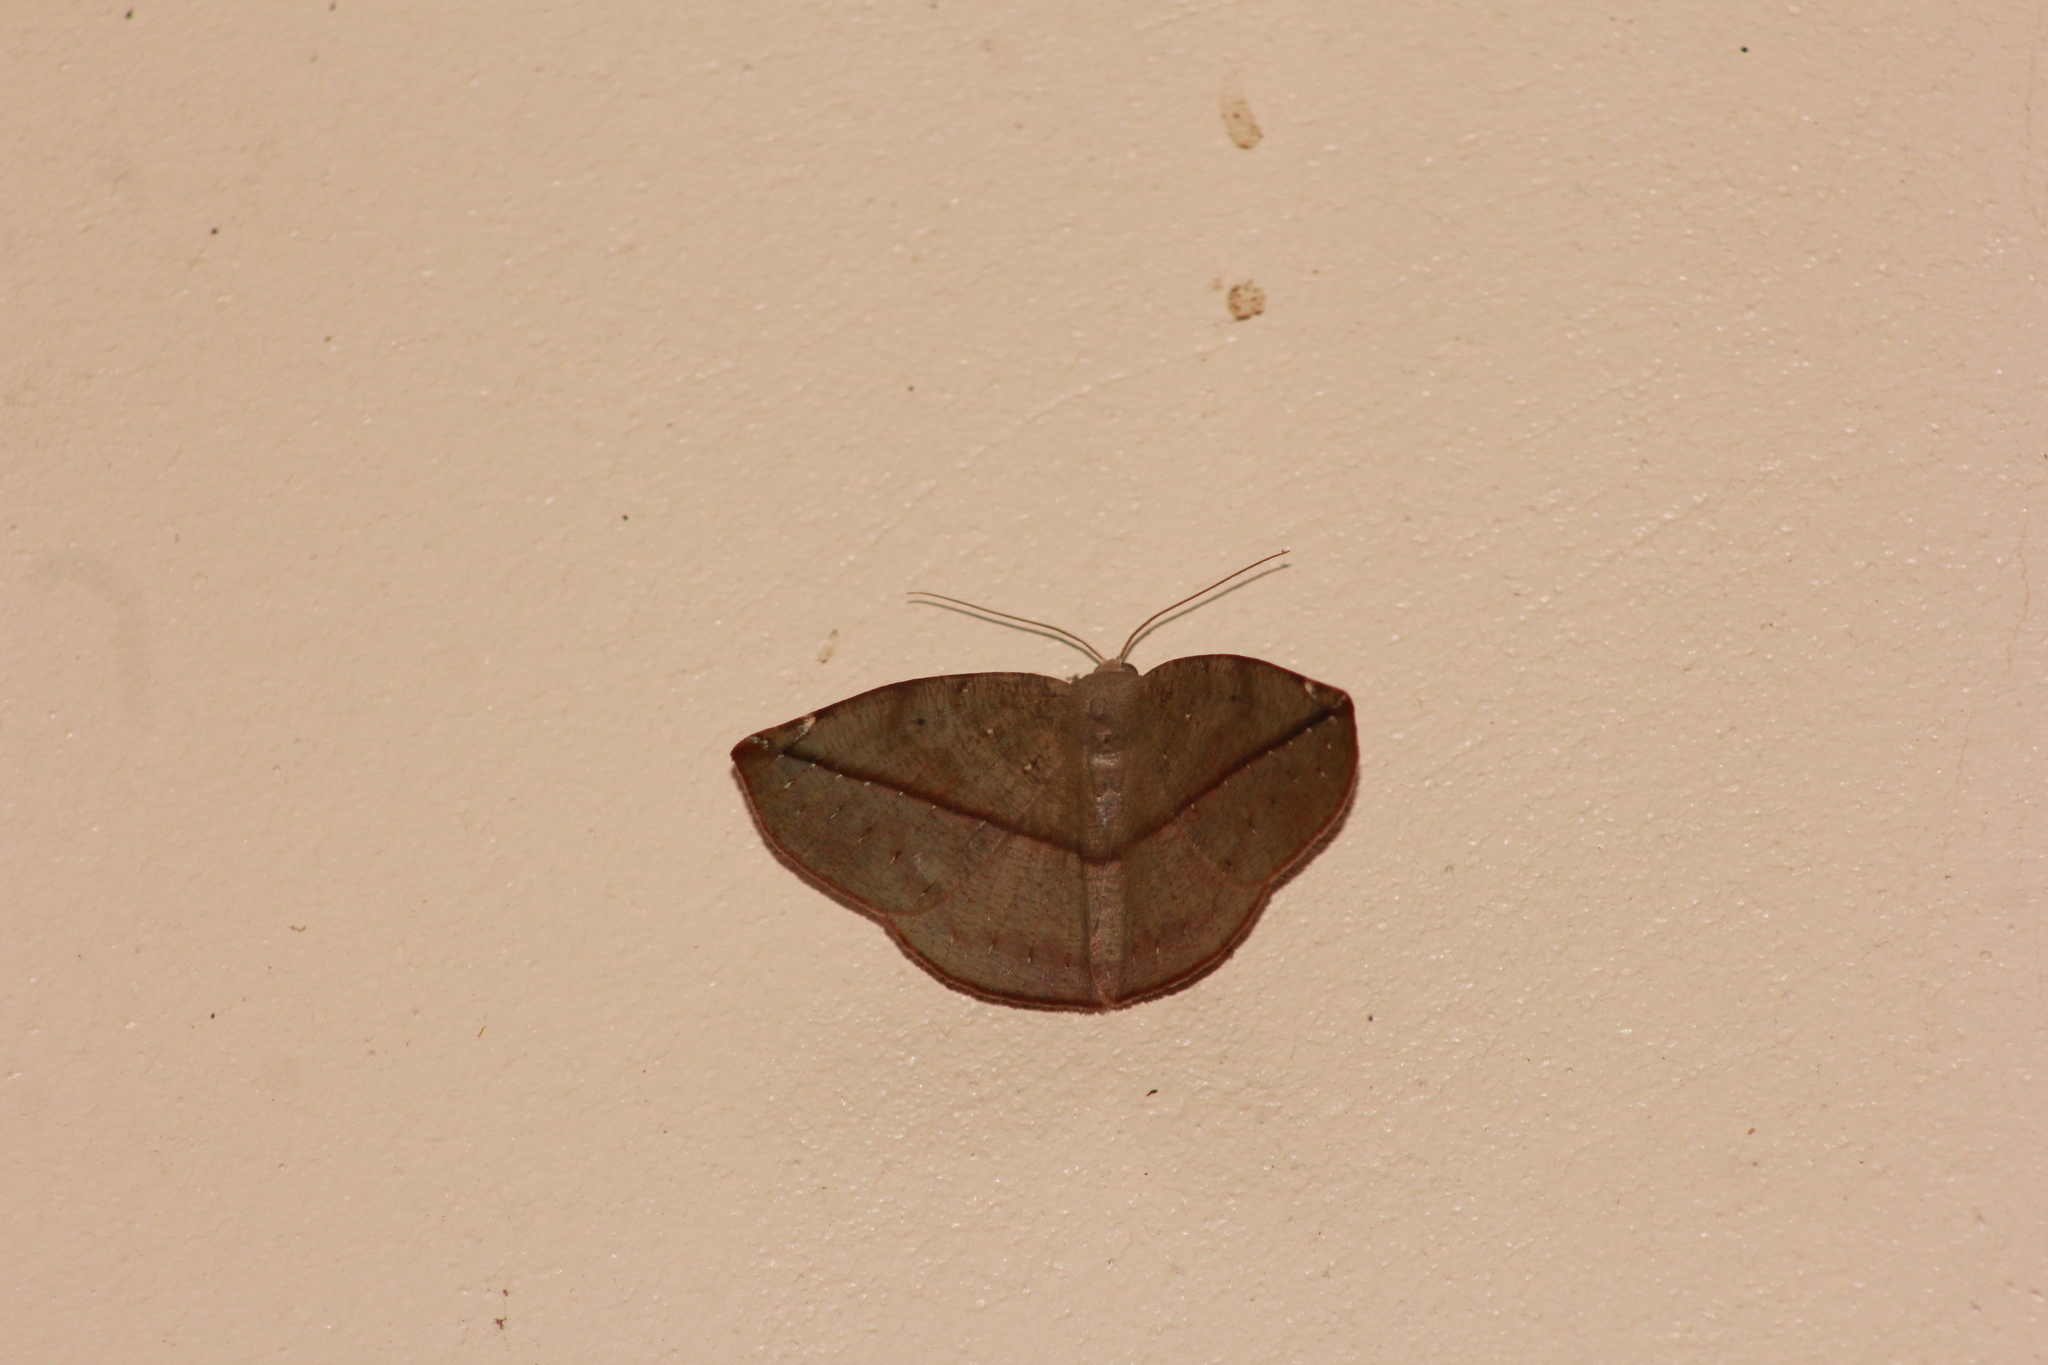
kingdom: Animalia
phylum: Arthropoda
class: Insecta
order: Lepidoptera
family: Geometridae
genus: Oxydia
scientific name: Oxydia apidania
